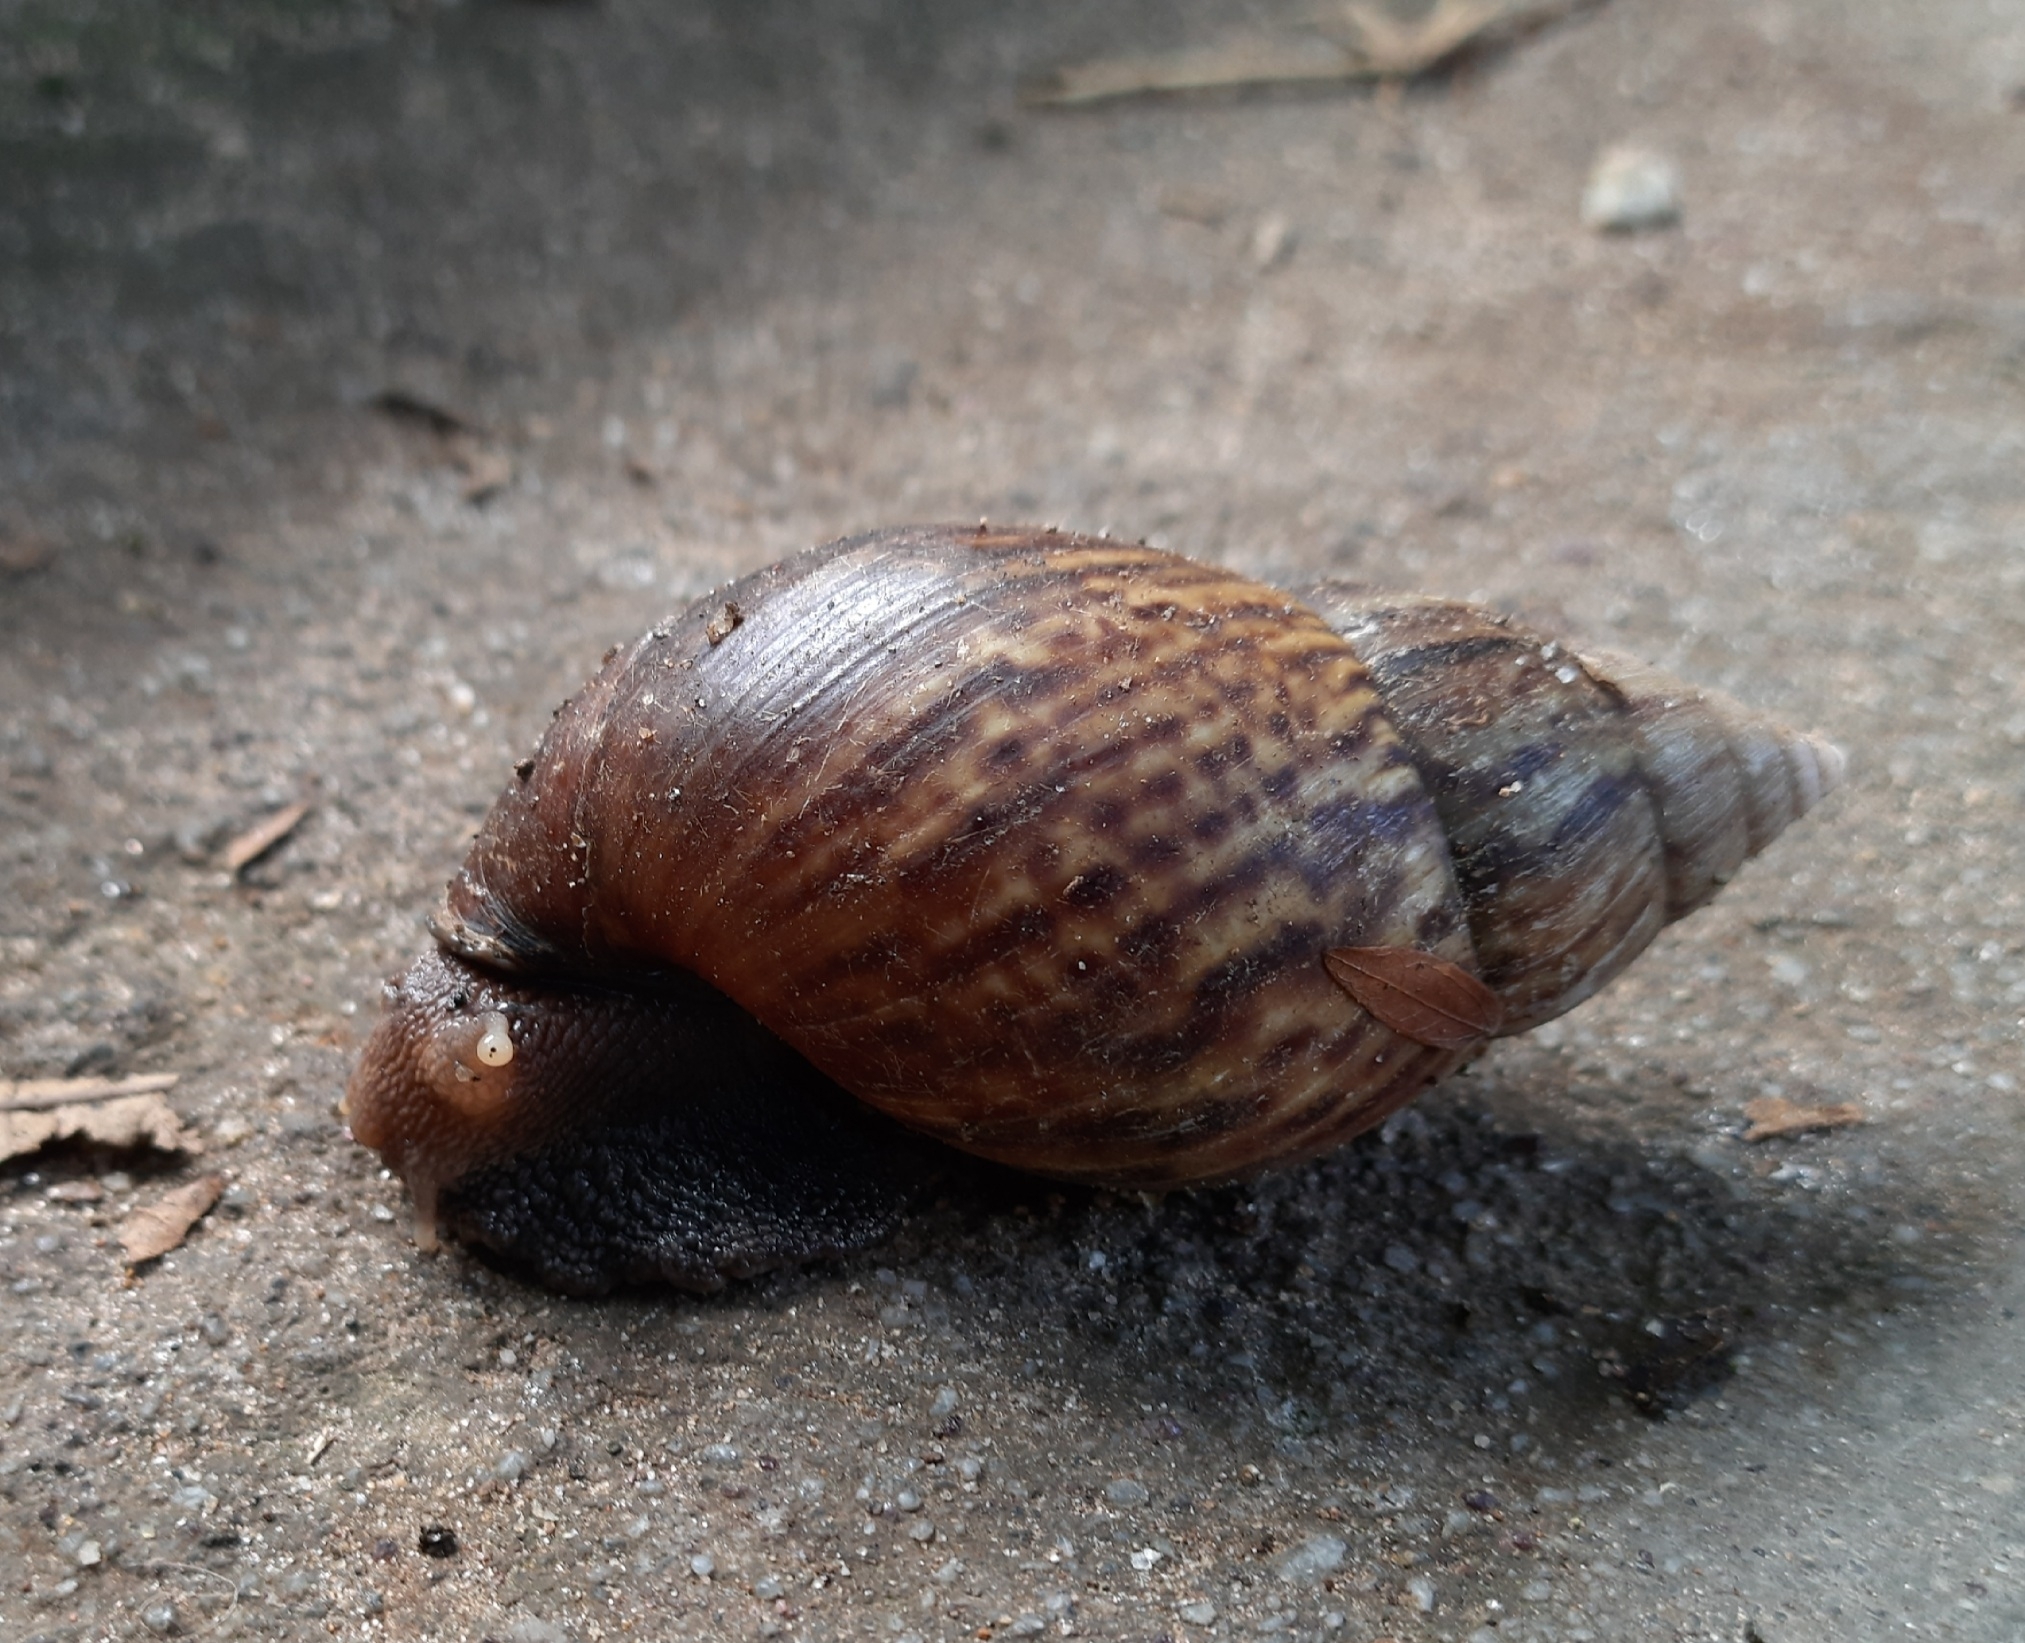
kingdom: Animalia
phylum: Mollusca
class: Gastropoda
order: Stylommatophora
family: Achatinidae
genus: Lissachatina
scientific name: Lissachatina fulica
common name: Giant african snail
